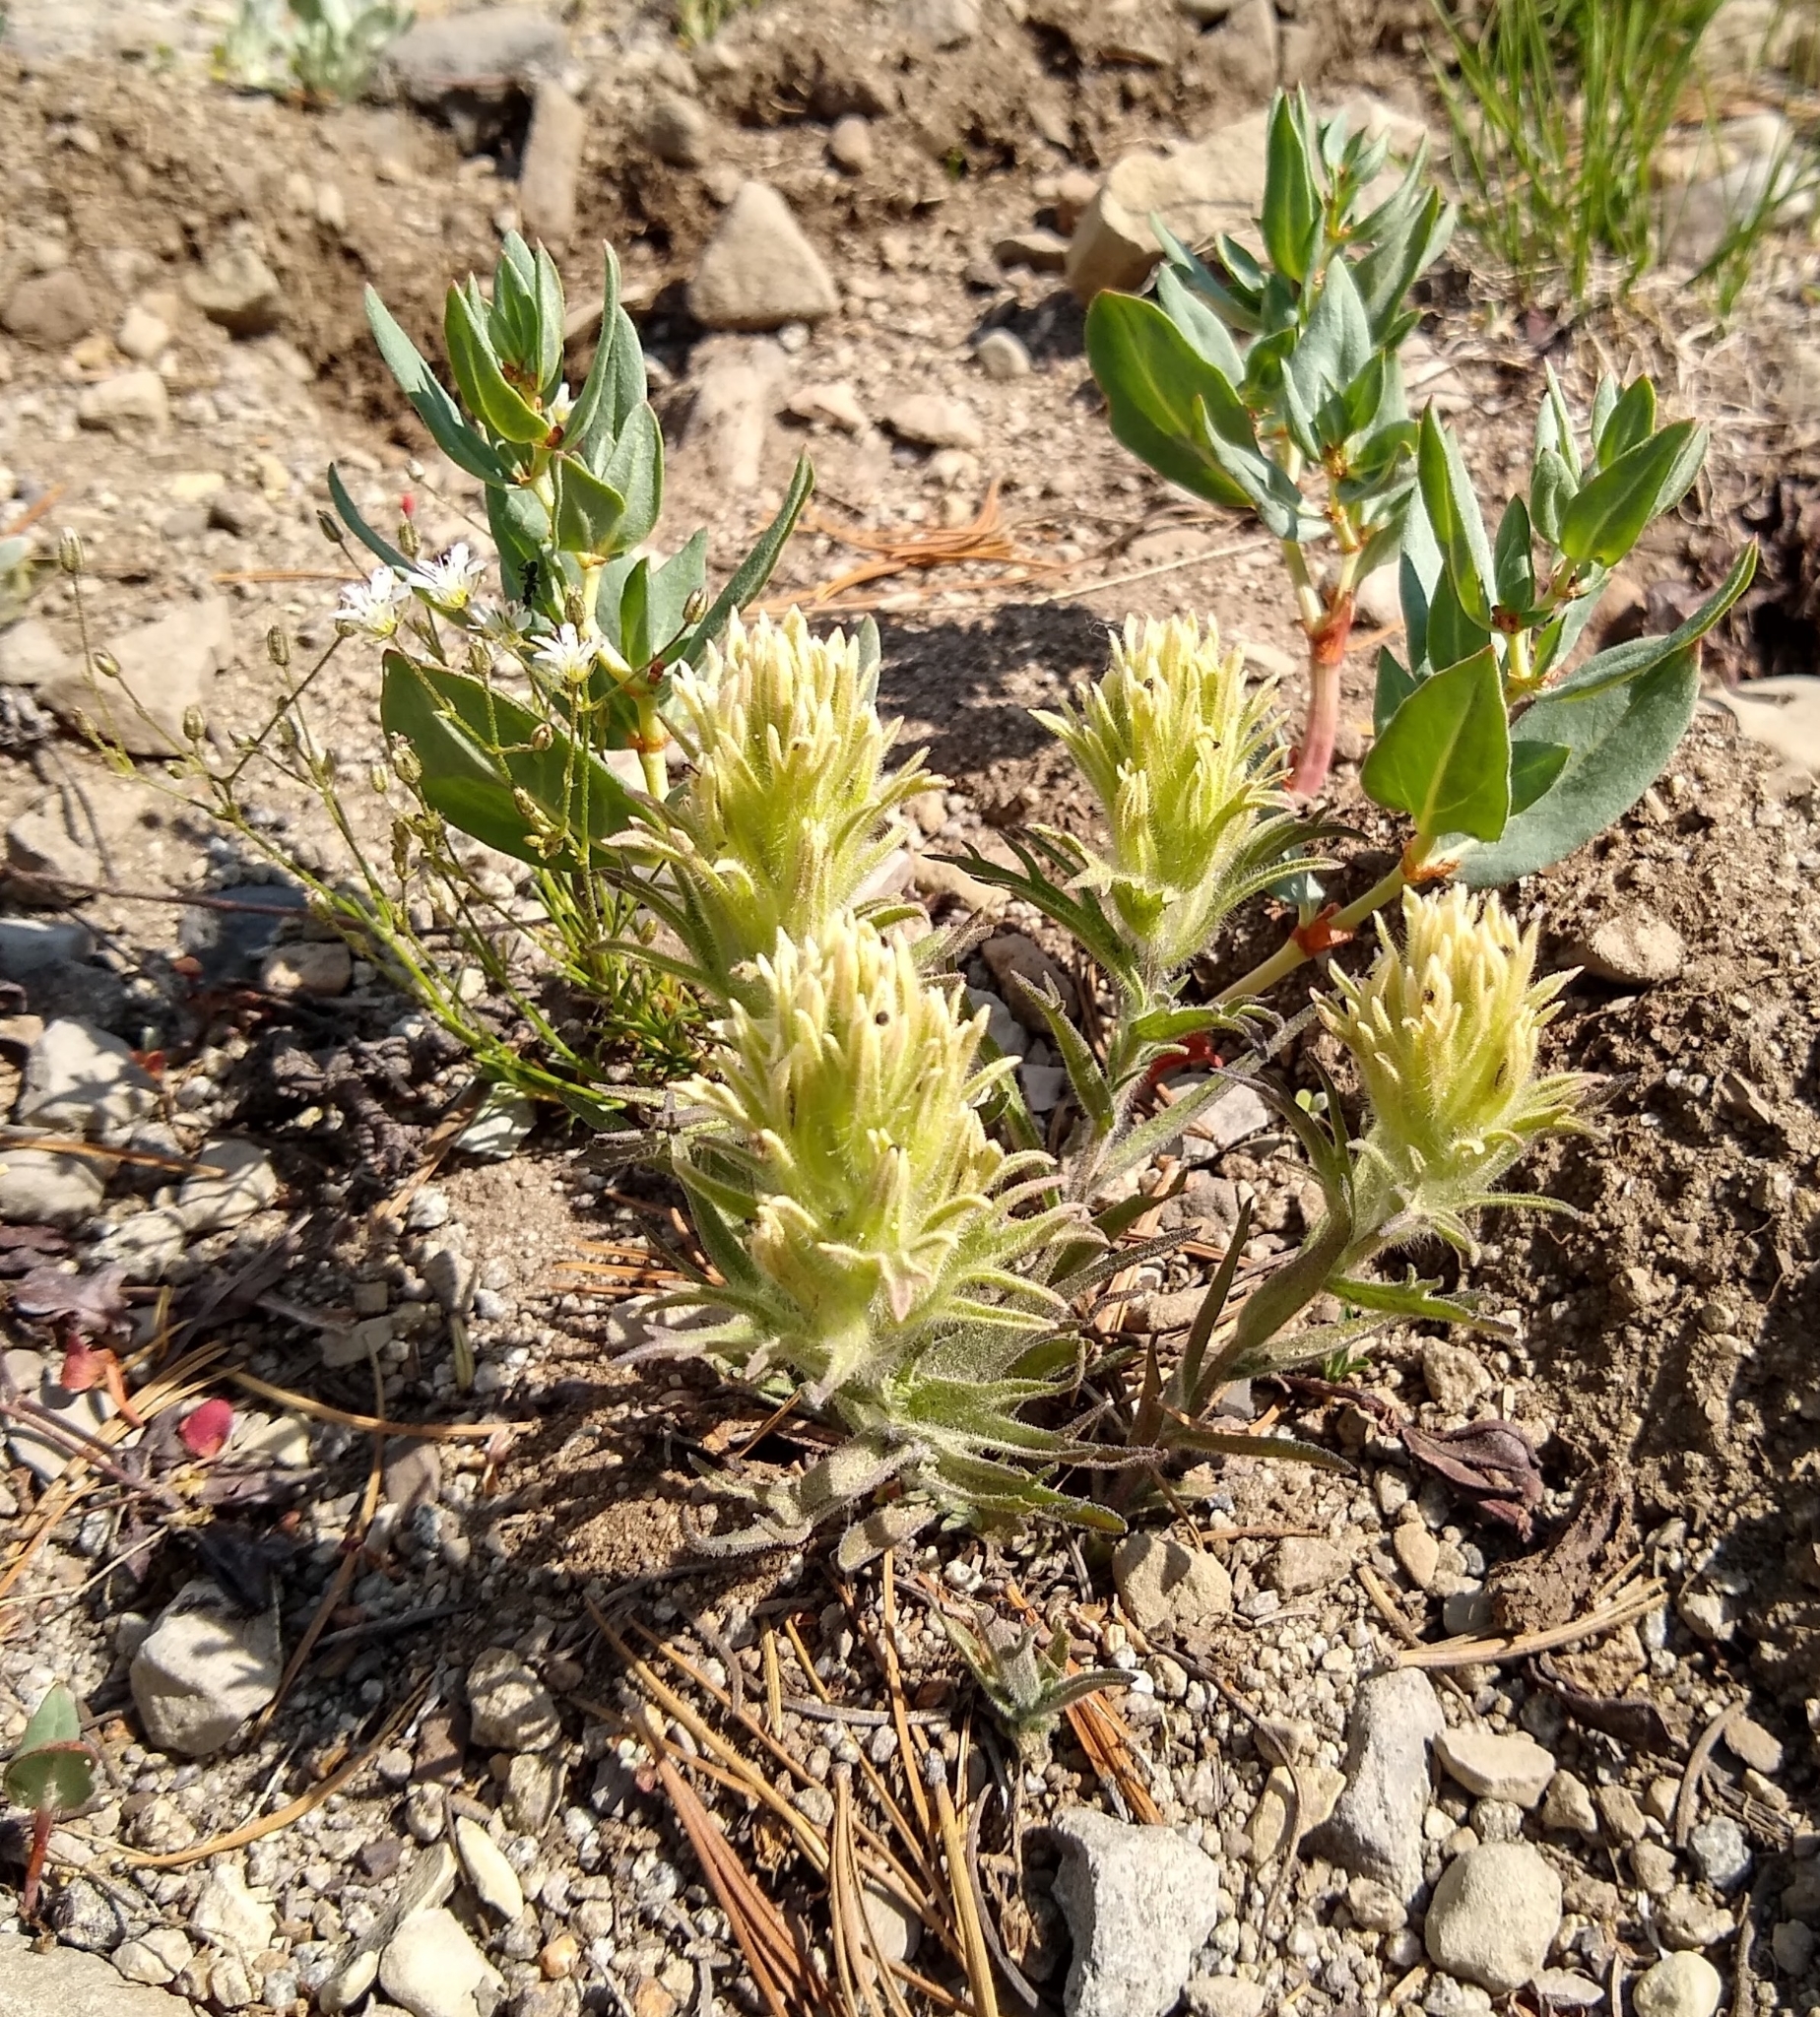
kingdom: Plantae
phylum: Tracheophyta
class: Magnoliopsida
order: Lamiales
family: Orobanchaceae
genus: Castilleja
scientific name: Castilleja nana
